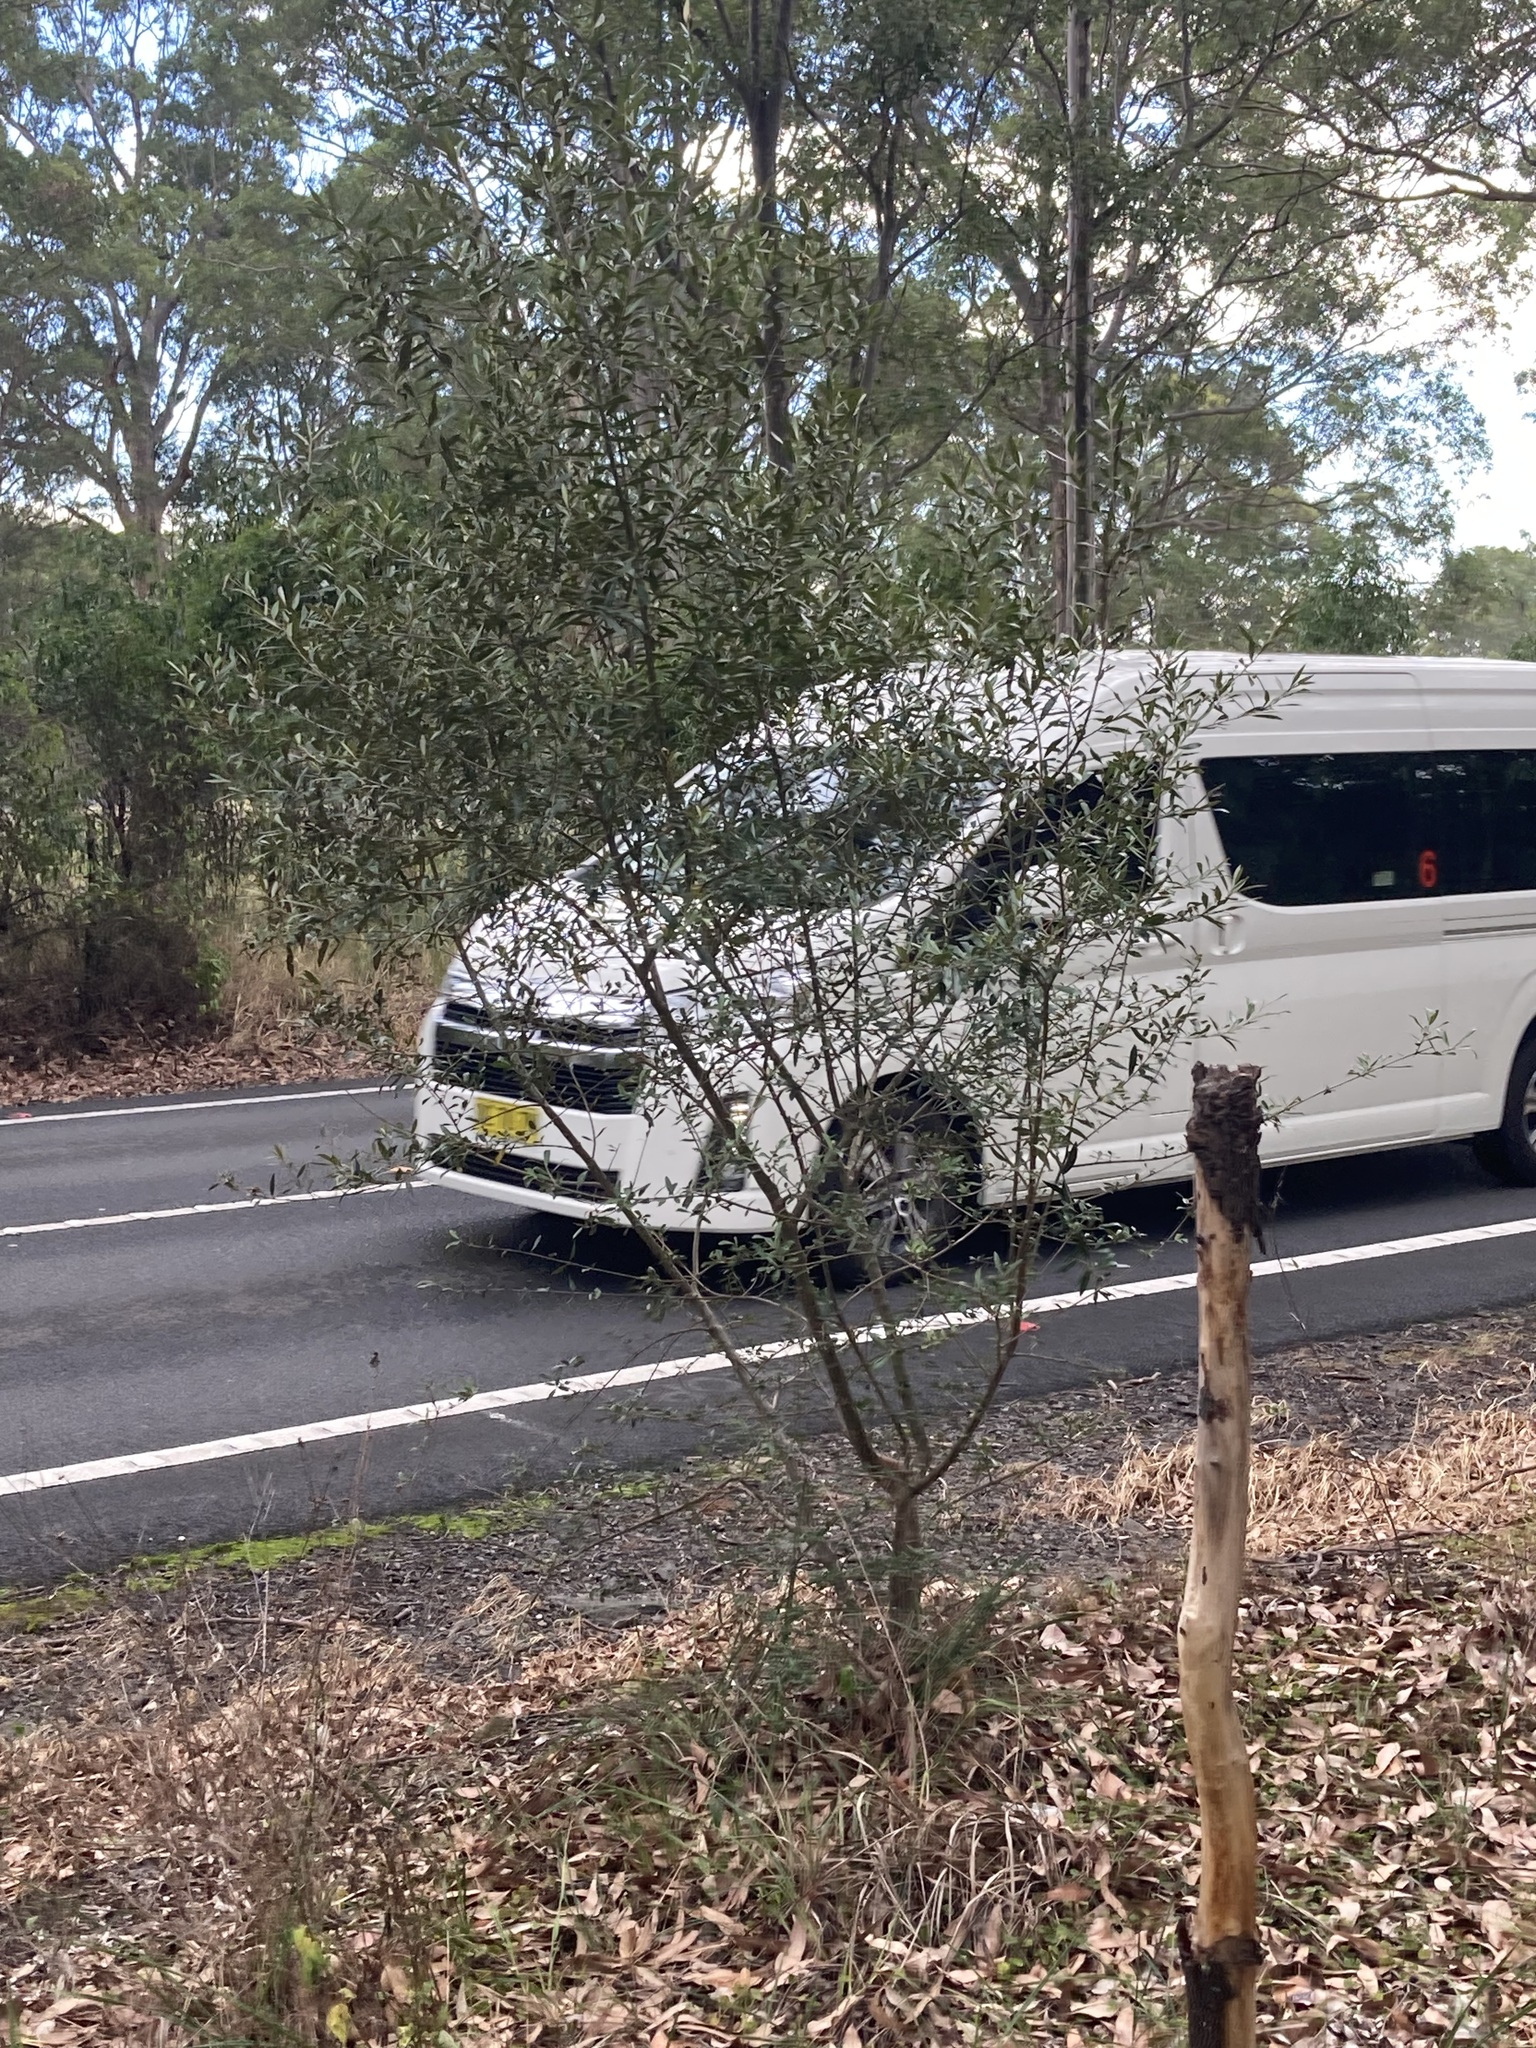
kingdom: Plantae
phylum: Tracheophyta
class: Magnoliopsida
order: Lamiales
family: Oleaceae
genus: Olea
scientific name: Olea europaea
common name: Olive
